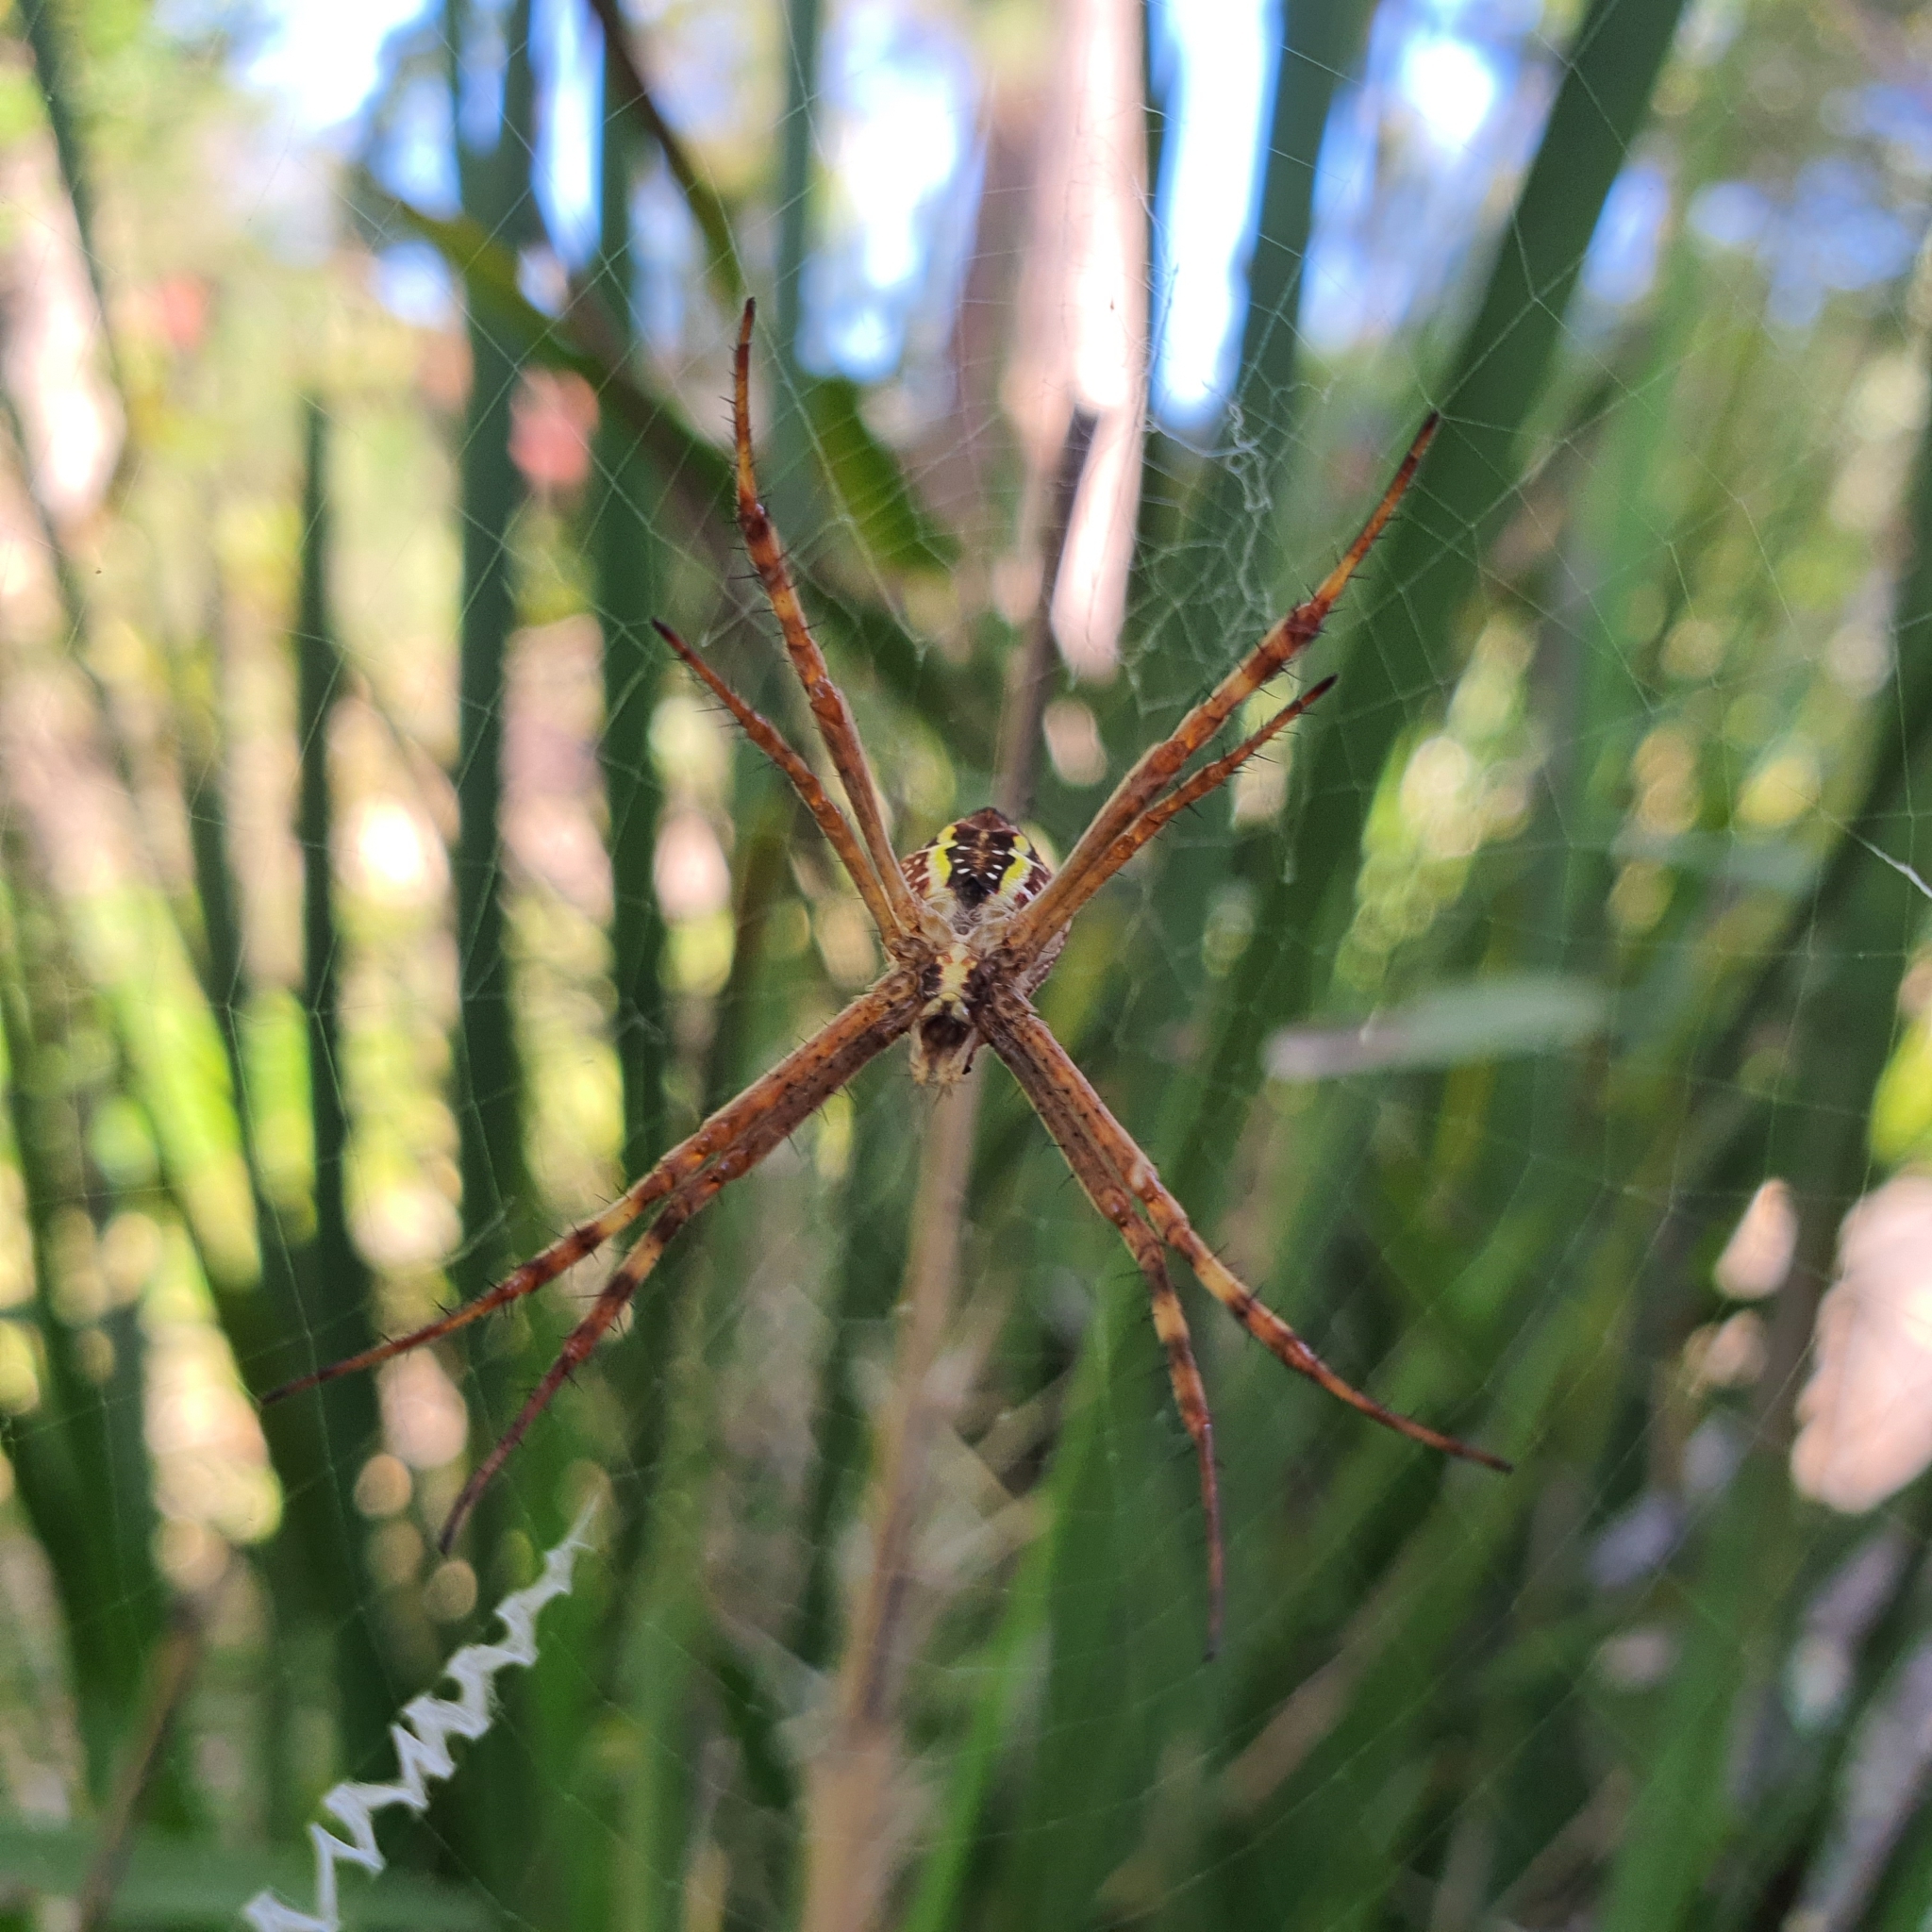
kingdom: Animalia
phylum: Arthropoda
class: Arachnida
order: Araneae
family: Araneidae
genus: Argiope
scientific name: Argiope keyserlingi
